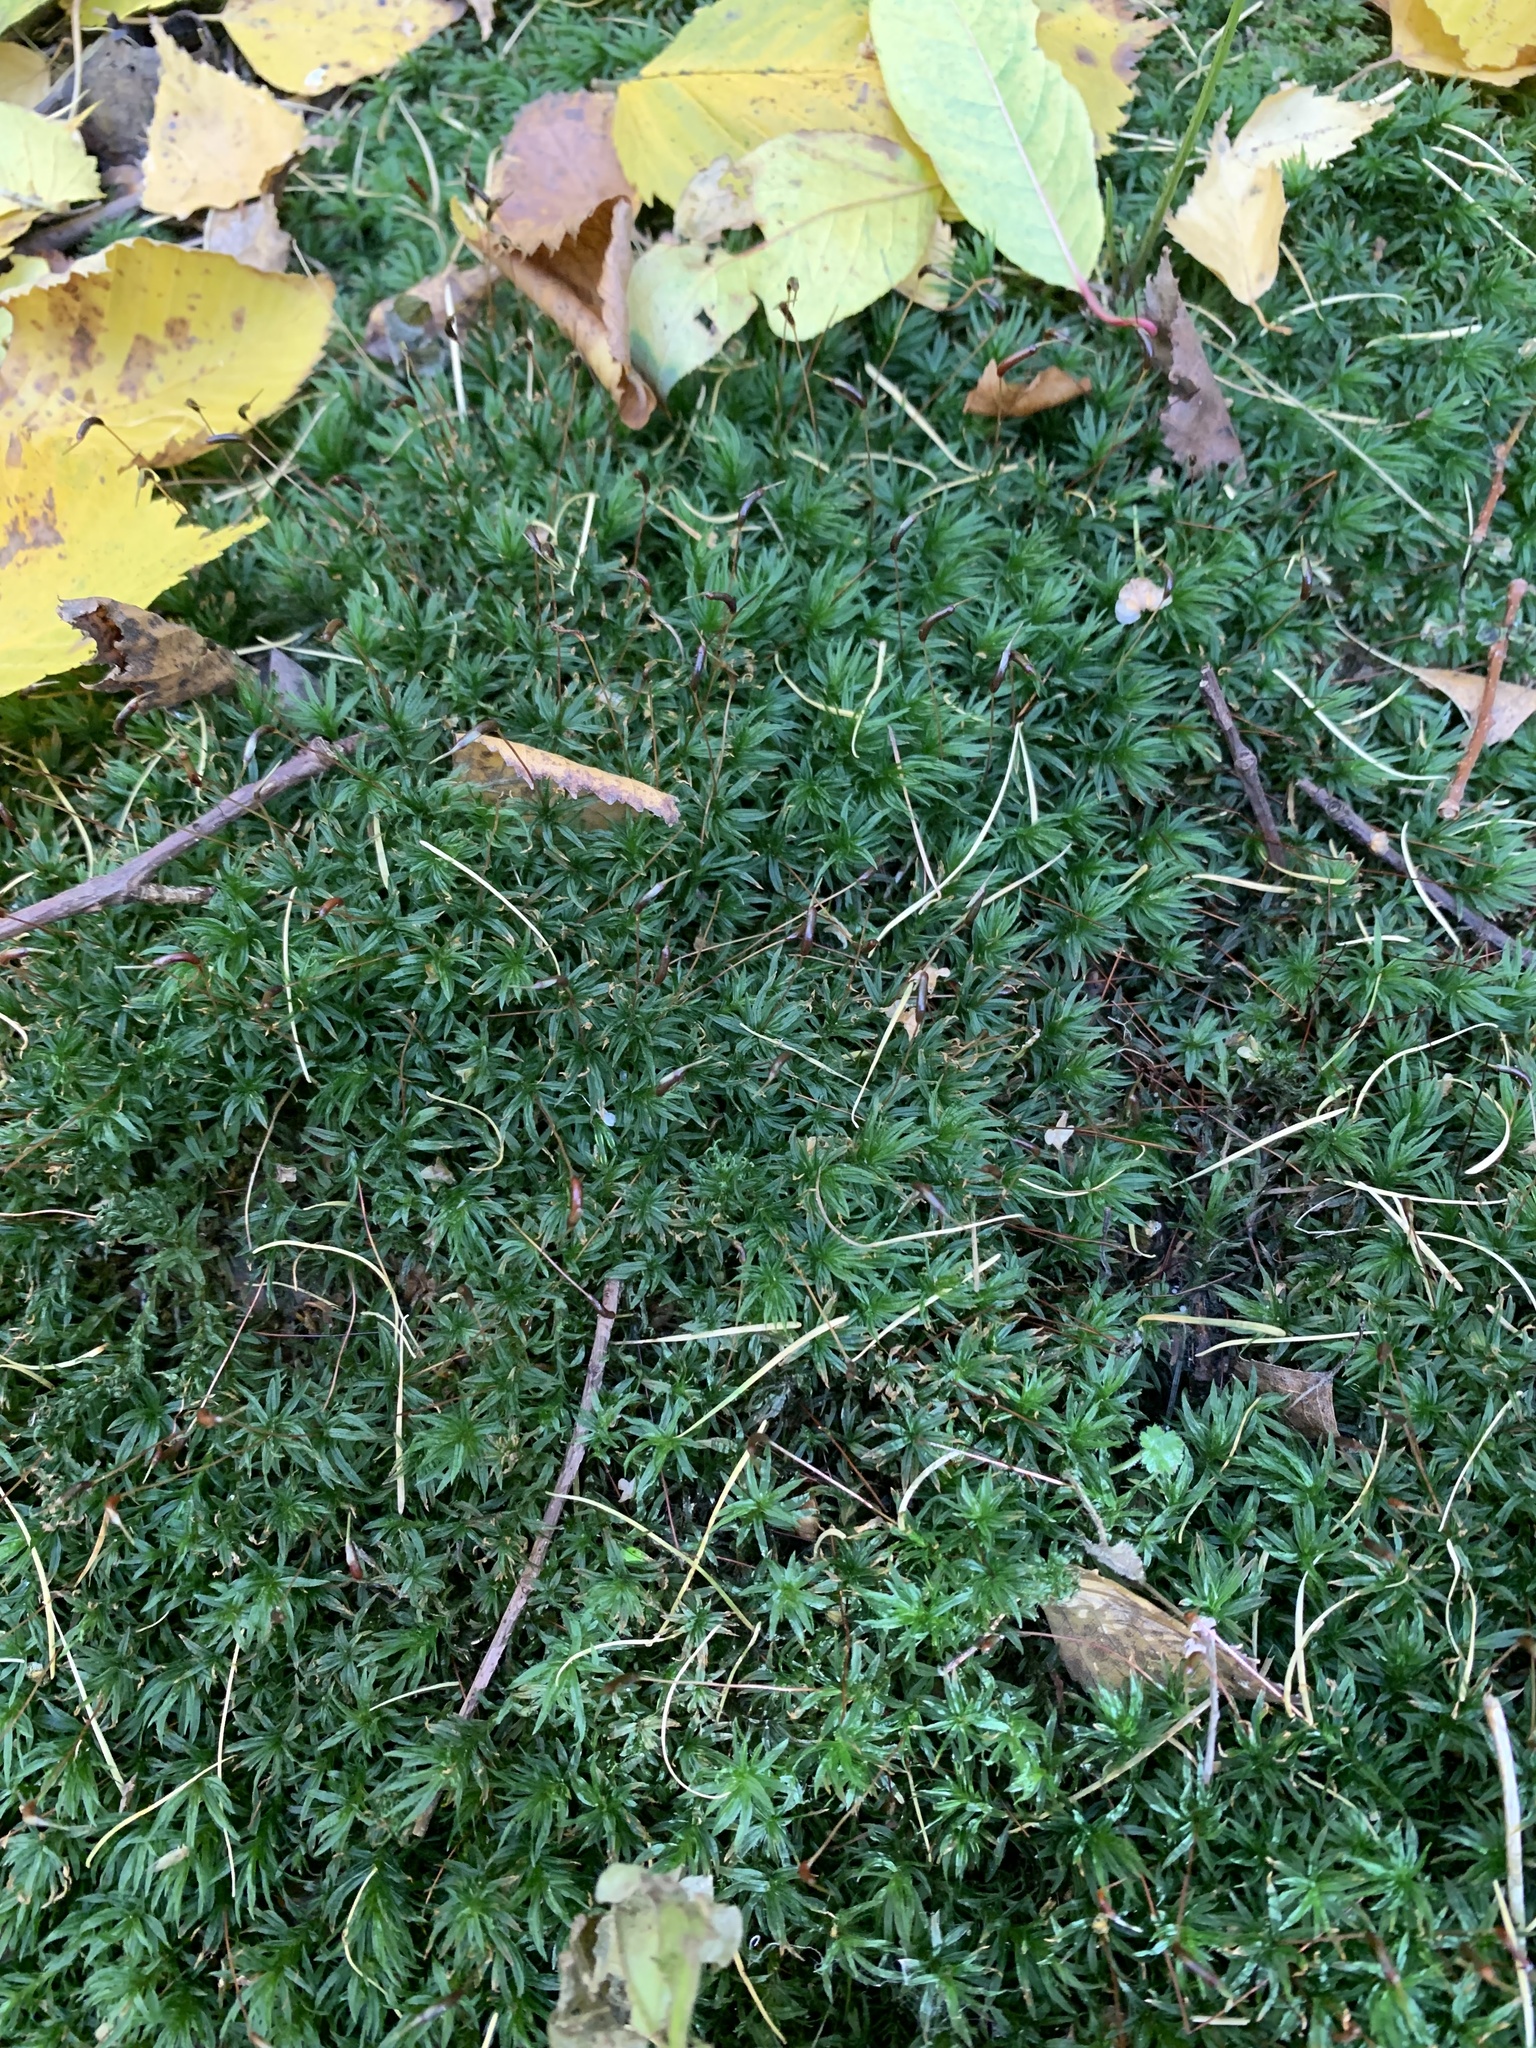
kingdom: Plantae
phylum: Bryophyta
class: Polytrichopsida
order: Polytrichales
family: Polytrichaceae
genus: Atrichum
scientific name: Atrichum undulatum
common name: Common smoothcap
